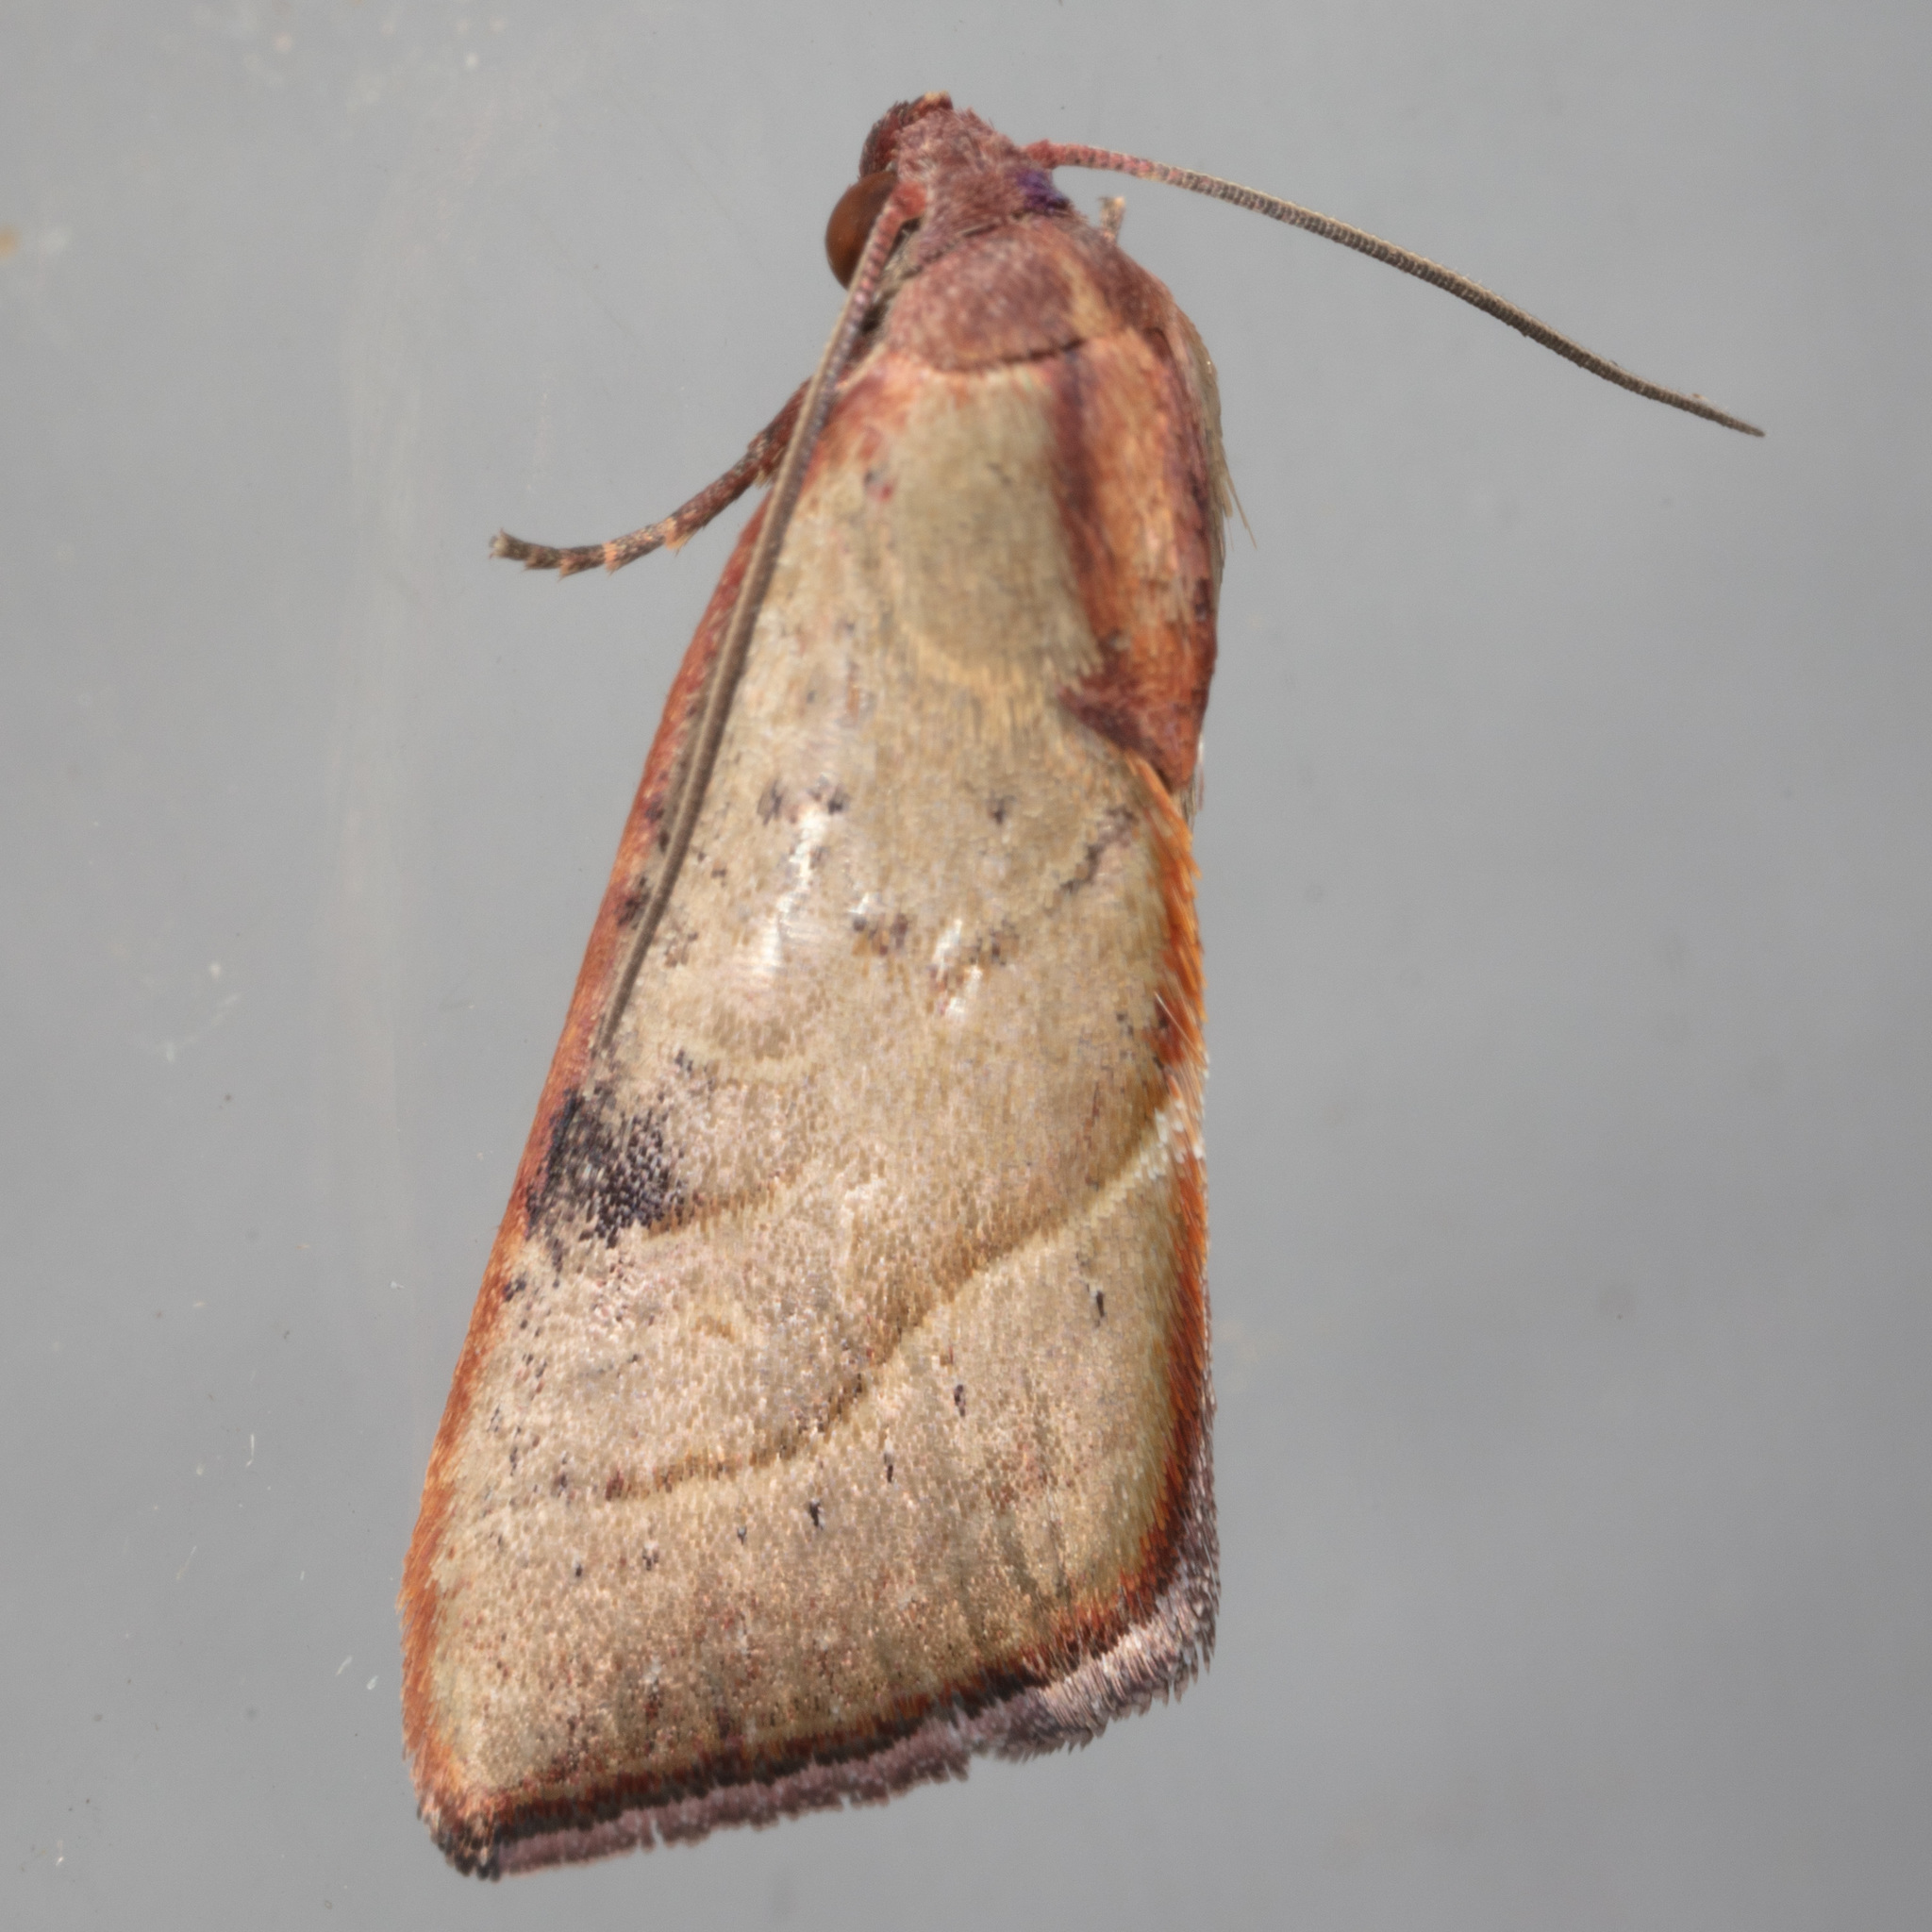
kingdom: Animalia
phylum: Arthropoda
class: Insecta
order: Lepidoptera
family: Noctuidae
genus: Galgula
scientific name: Galgula partita
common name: Wedgeling
